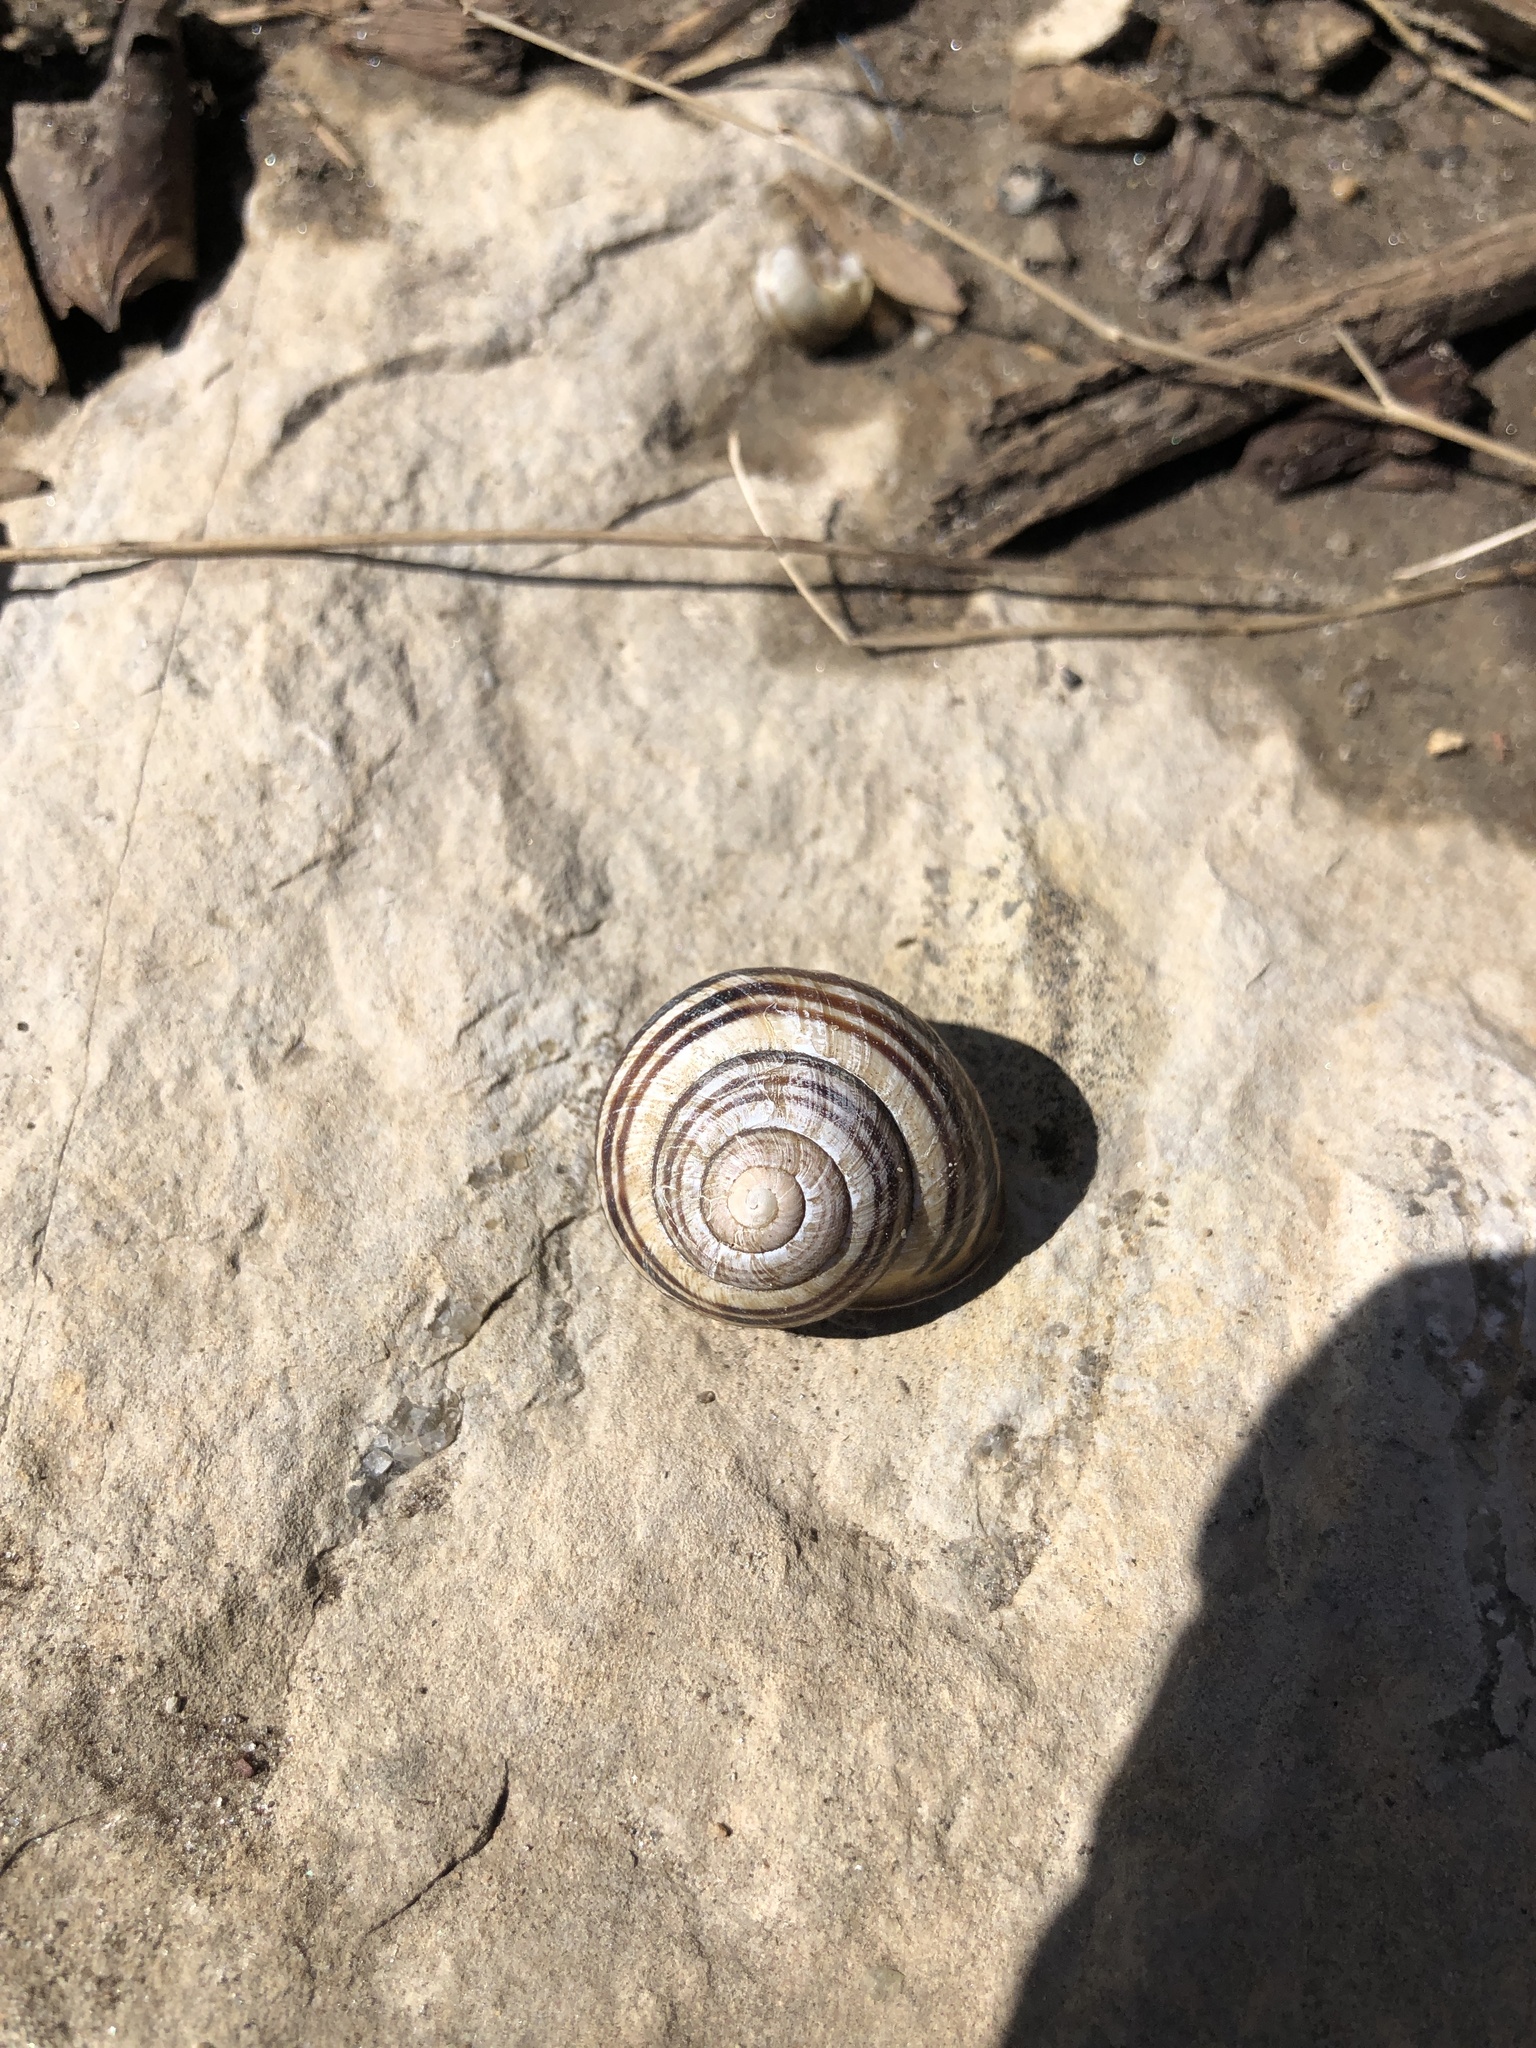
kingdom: Animalia
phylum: Mollusca
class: Gastropoda
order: Stylommatophora
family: Helicidae
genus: Cepaea
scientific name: Cepaea nemoralis
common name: Grovesnail
